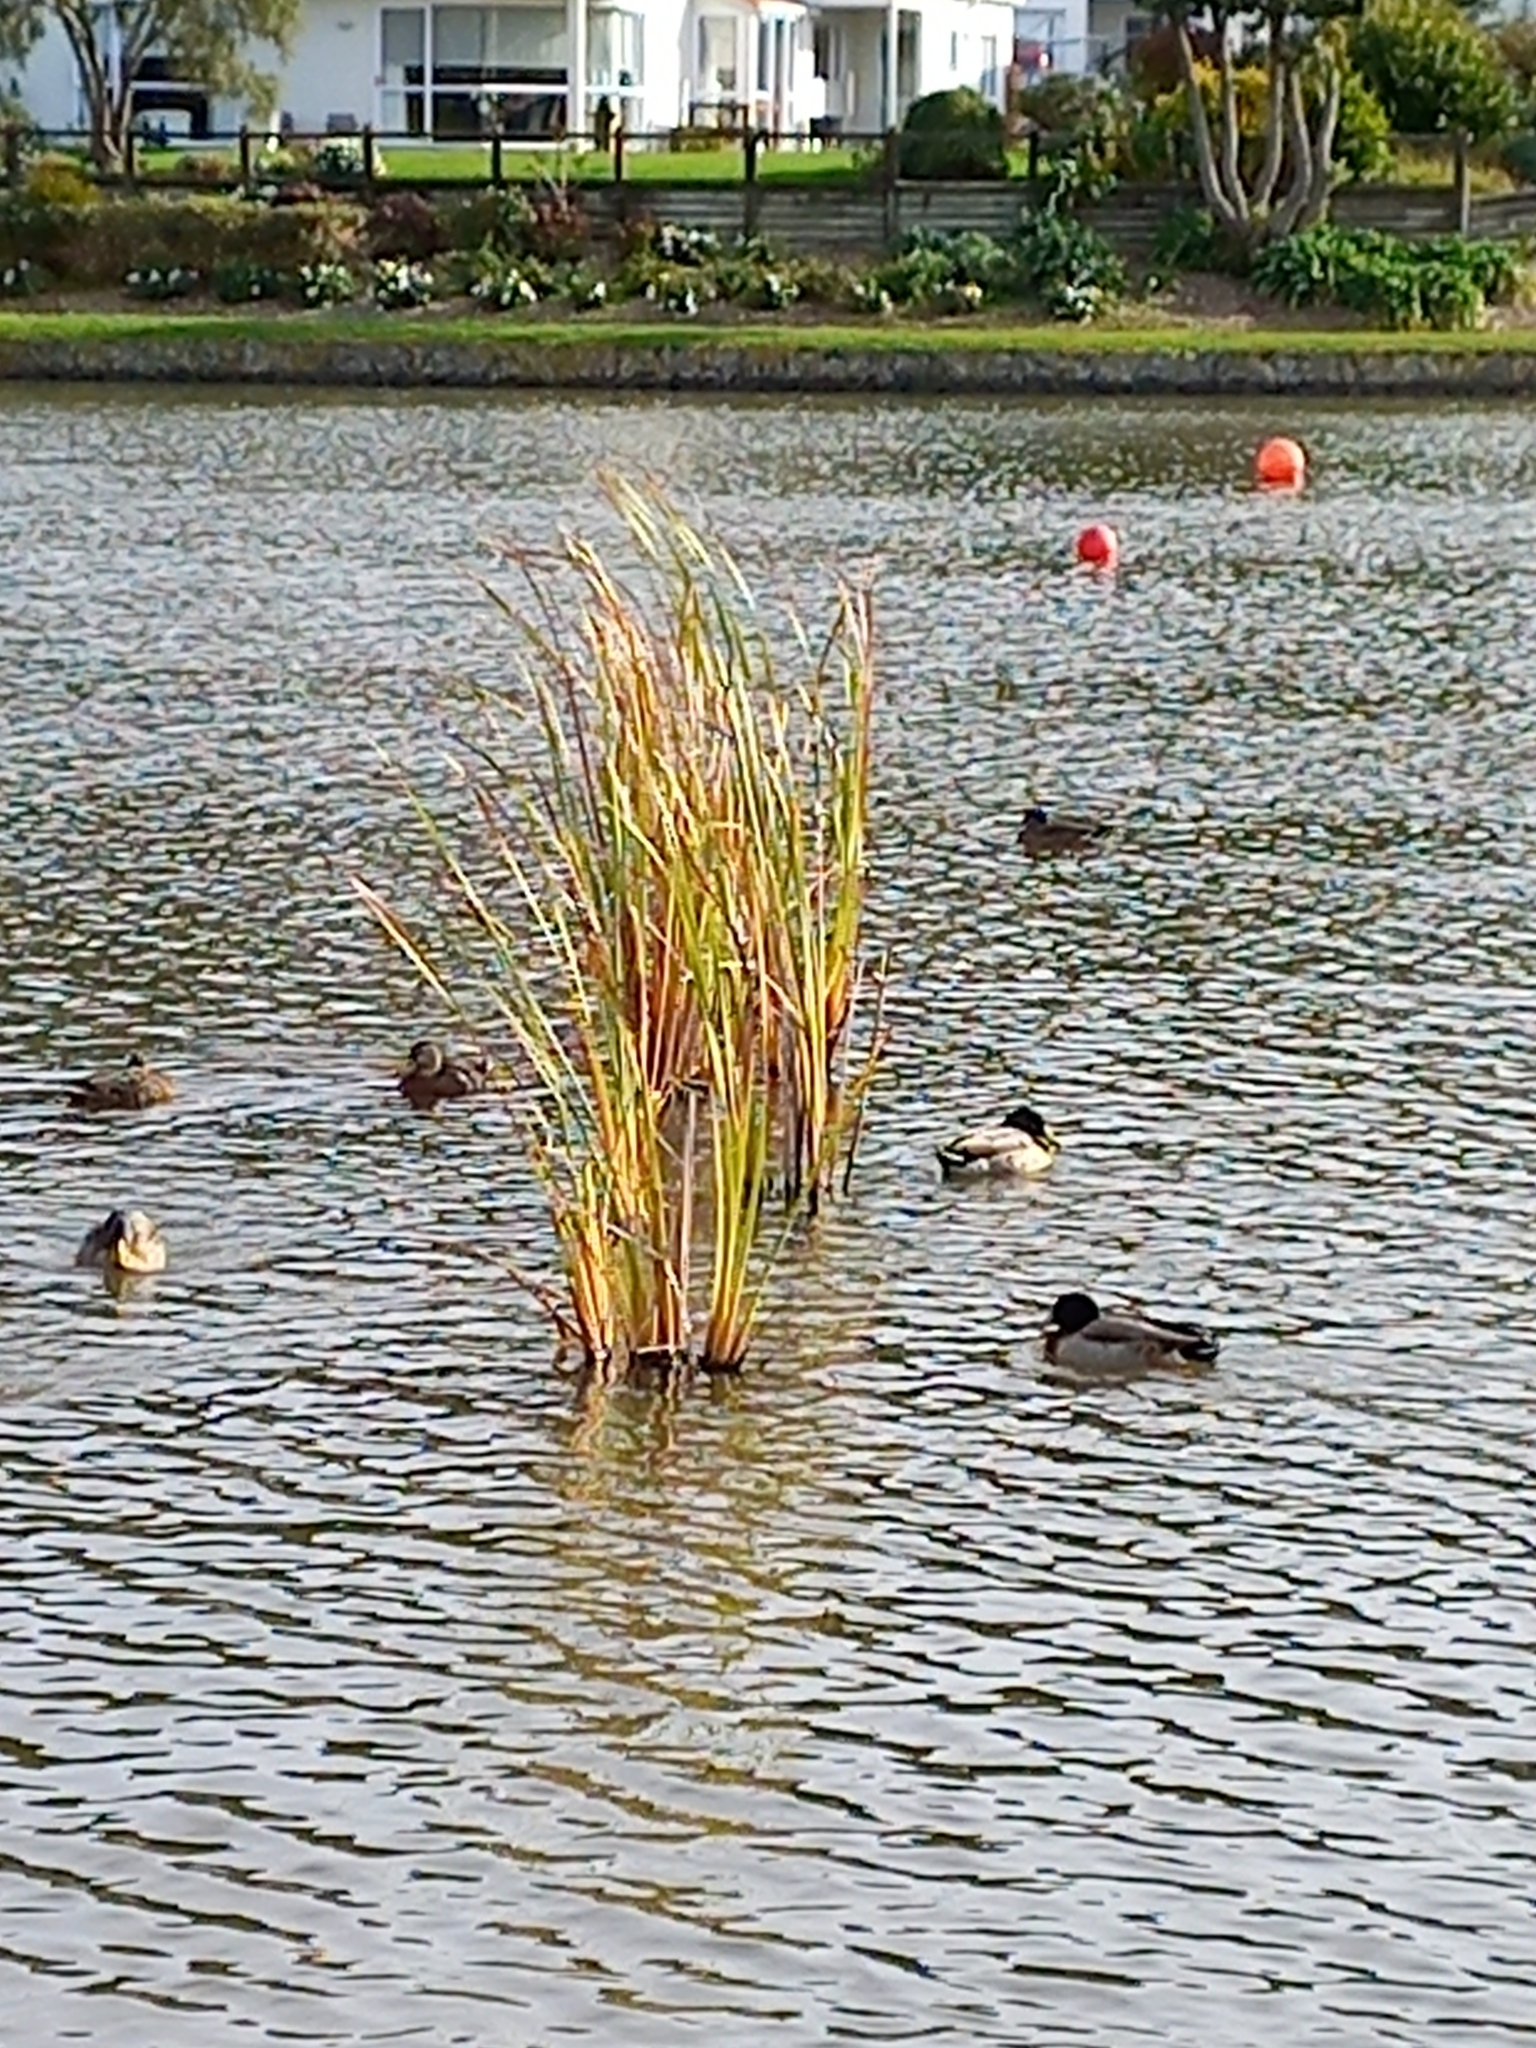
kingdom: Plantae
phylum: Tracheophyta
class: Liliopsida
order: Poales
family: Typhaceae
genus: Typha
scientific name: Typha orientalis
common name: Bullrush
